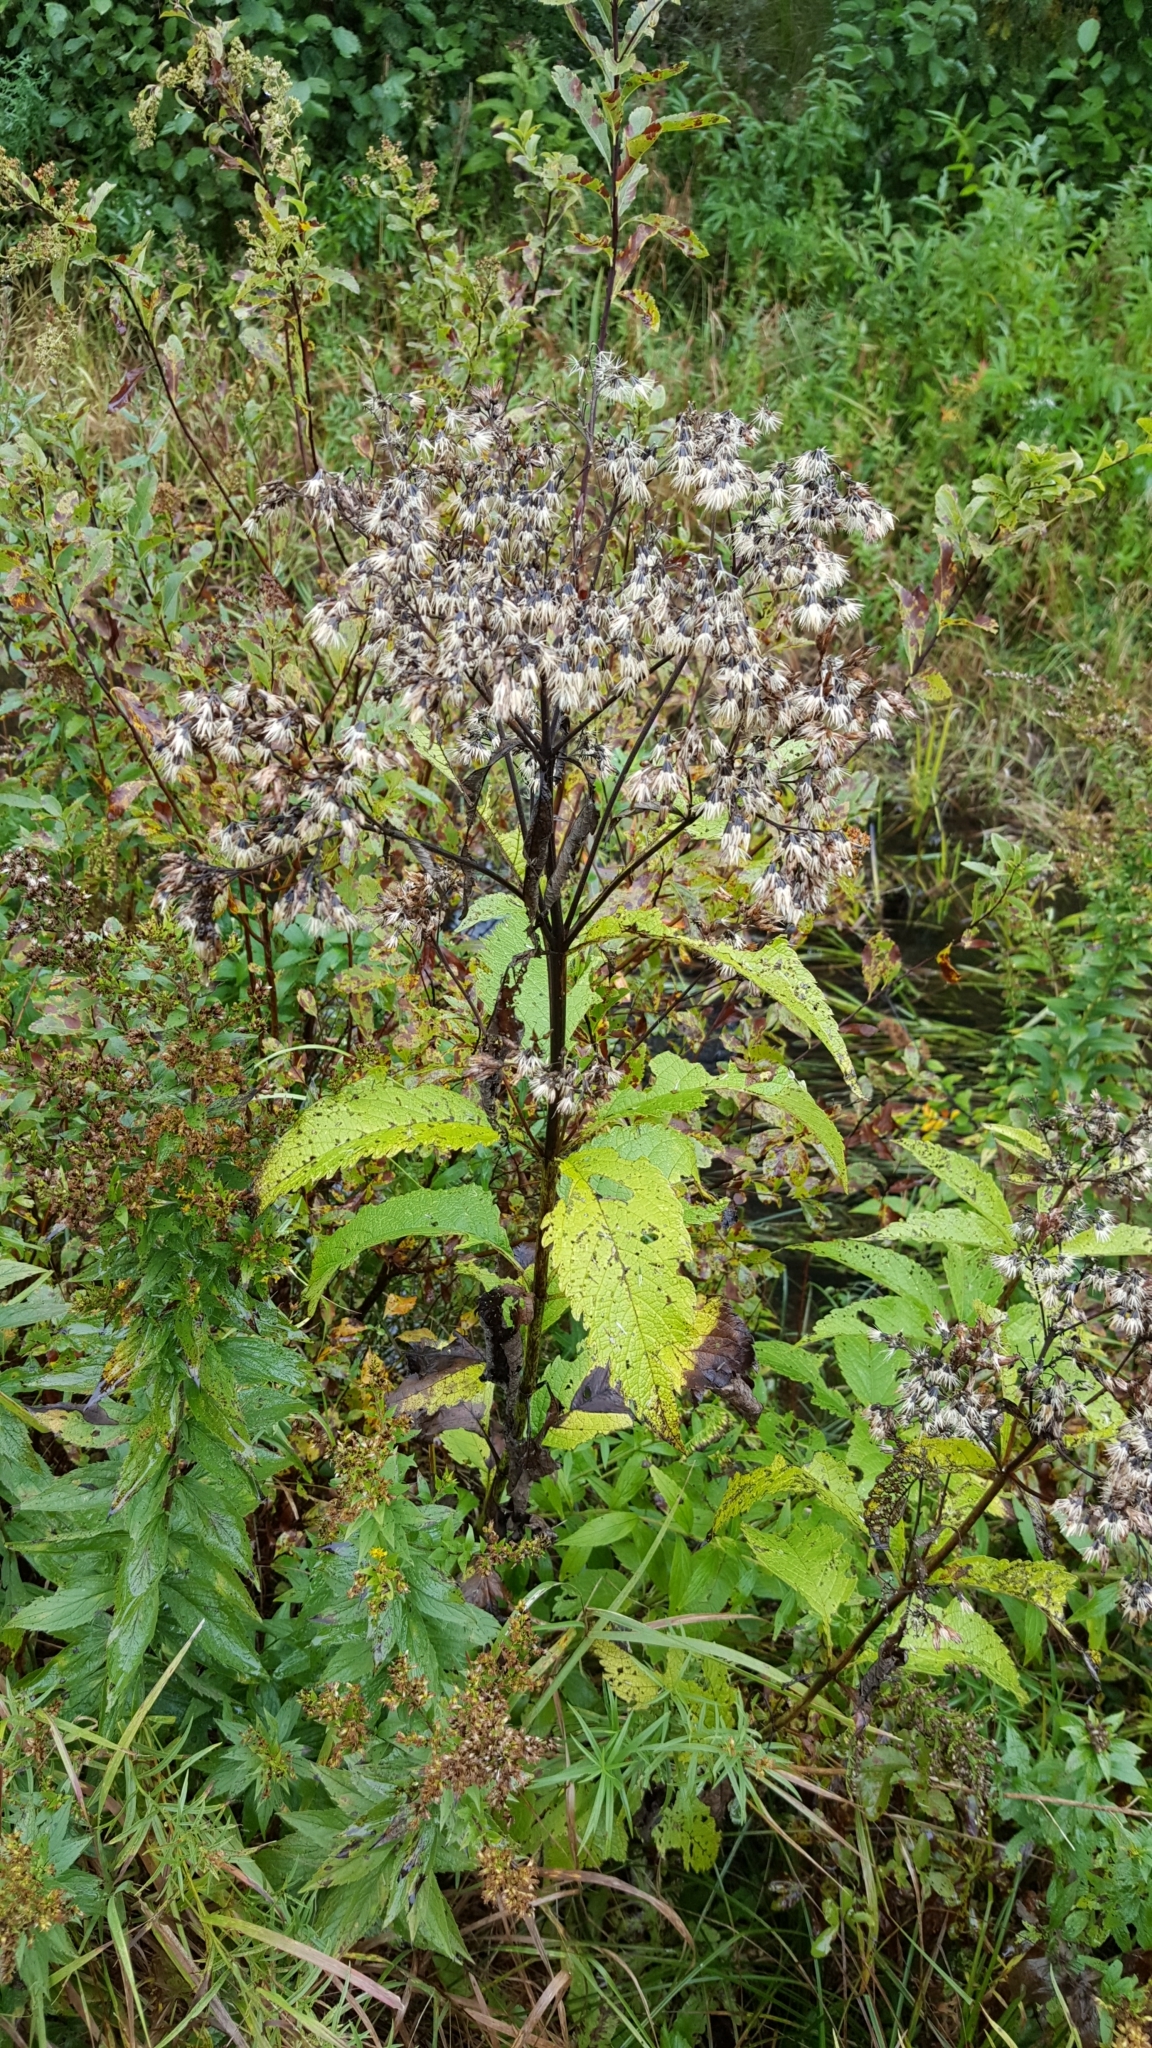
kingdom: Plantae
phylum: Tracheophyta
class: Magnoliopsida
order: Asterales
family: Asteraceae
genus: Eutrochium
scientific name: Eutrochium maculatum
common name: Spotted joe pye weed
